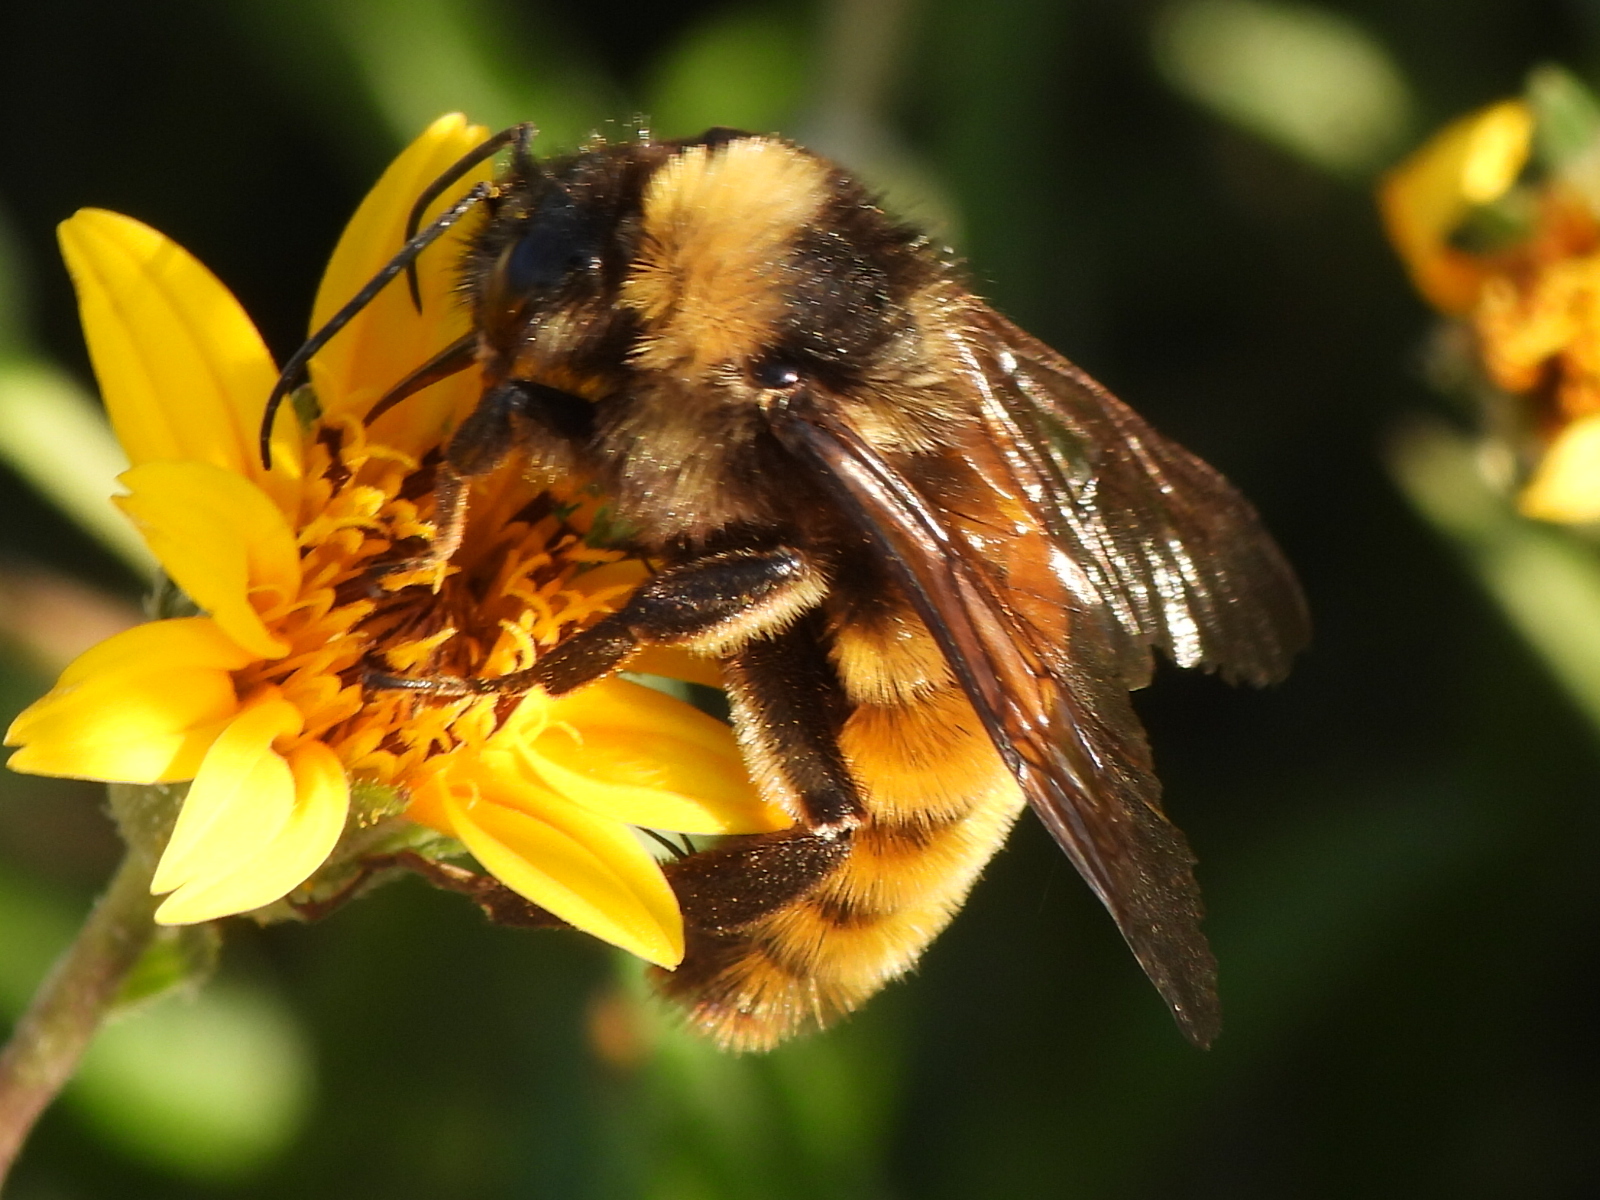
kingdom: Animalia
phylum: Arthropoda
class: Insecta
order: Hymenoptera
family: Apidae
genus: Bombus
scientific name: Bombus pensylvanicus
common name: Bumble bee
